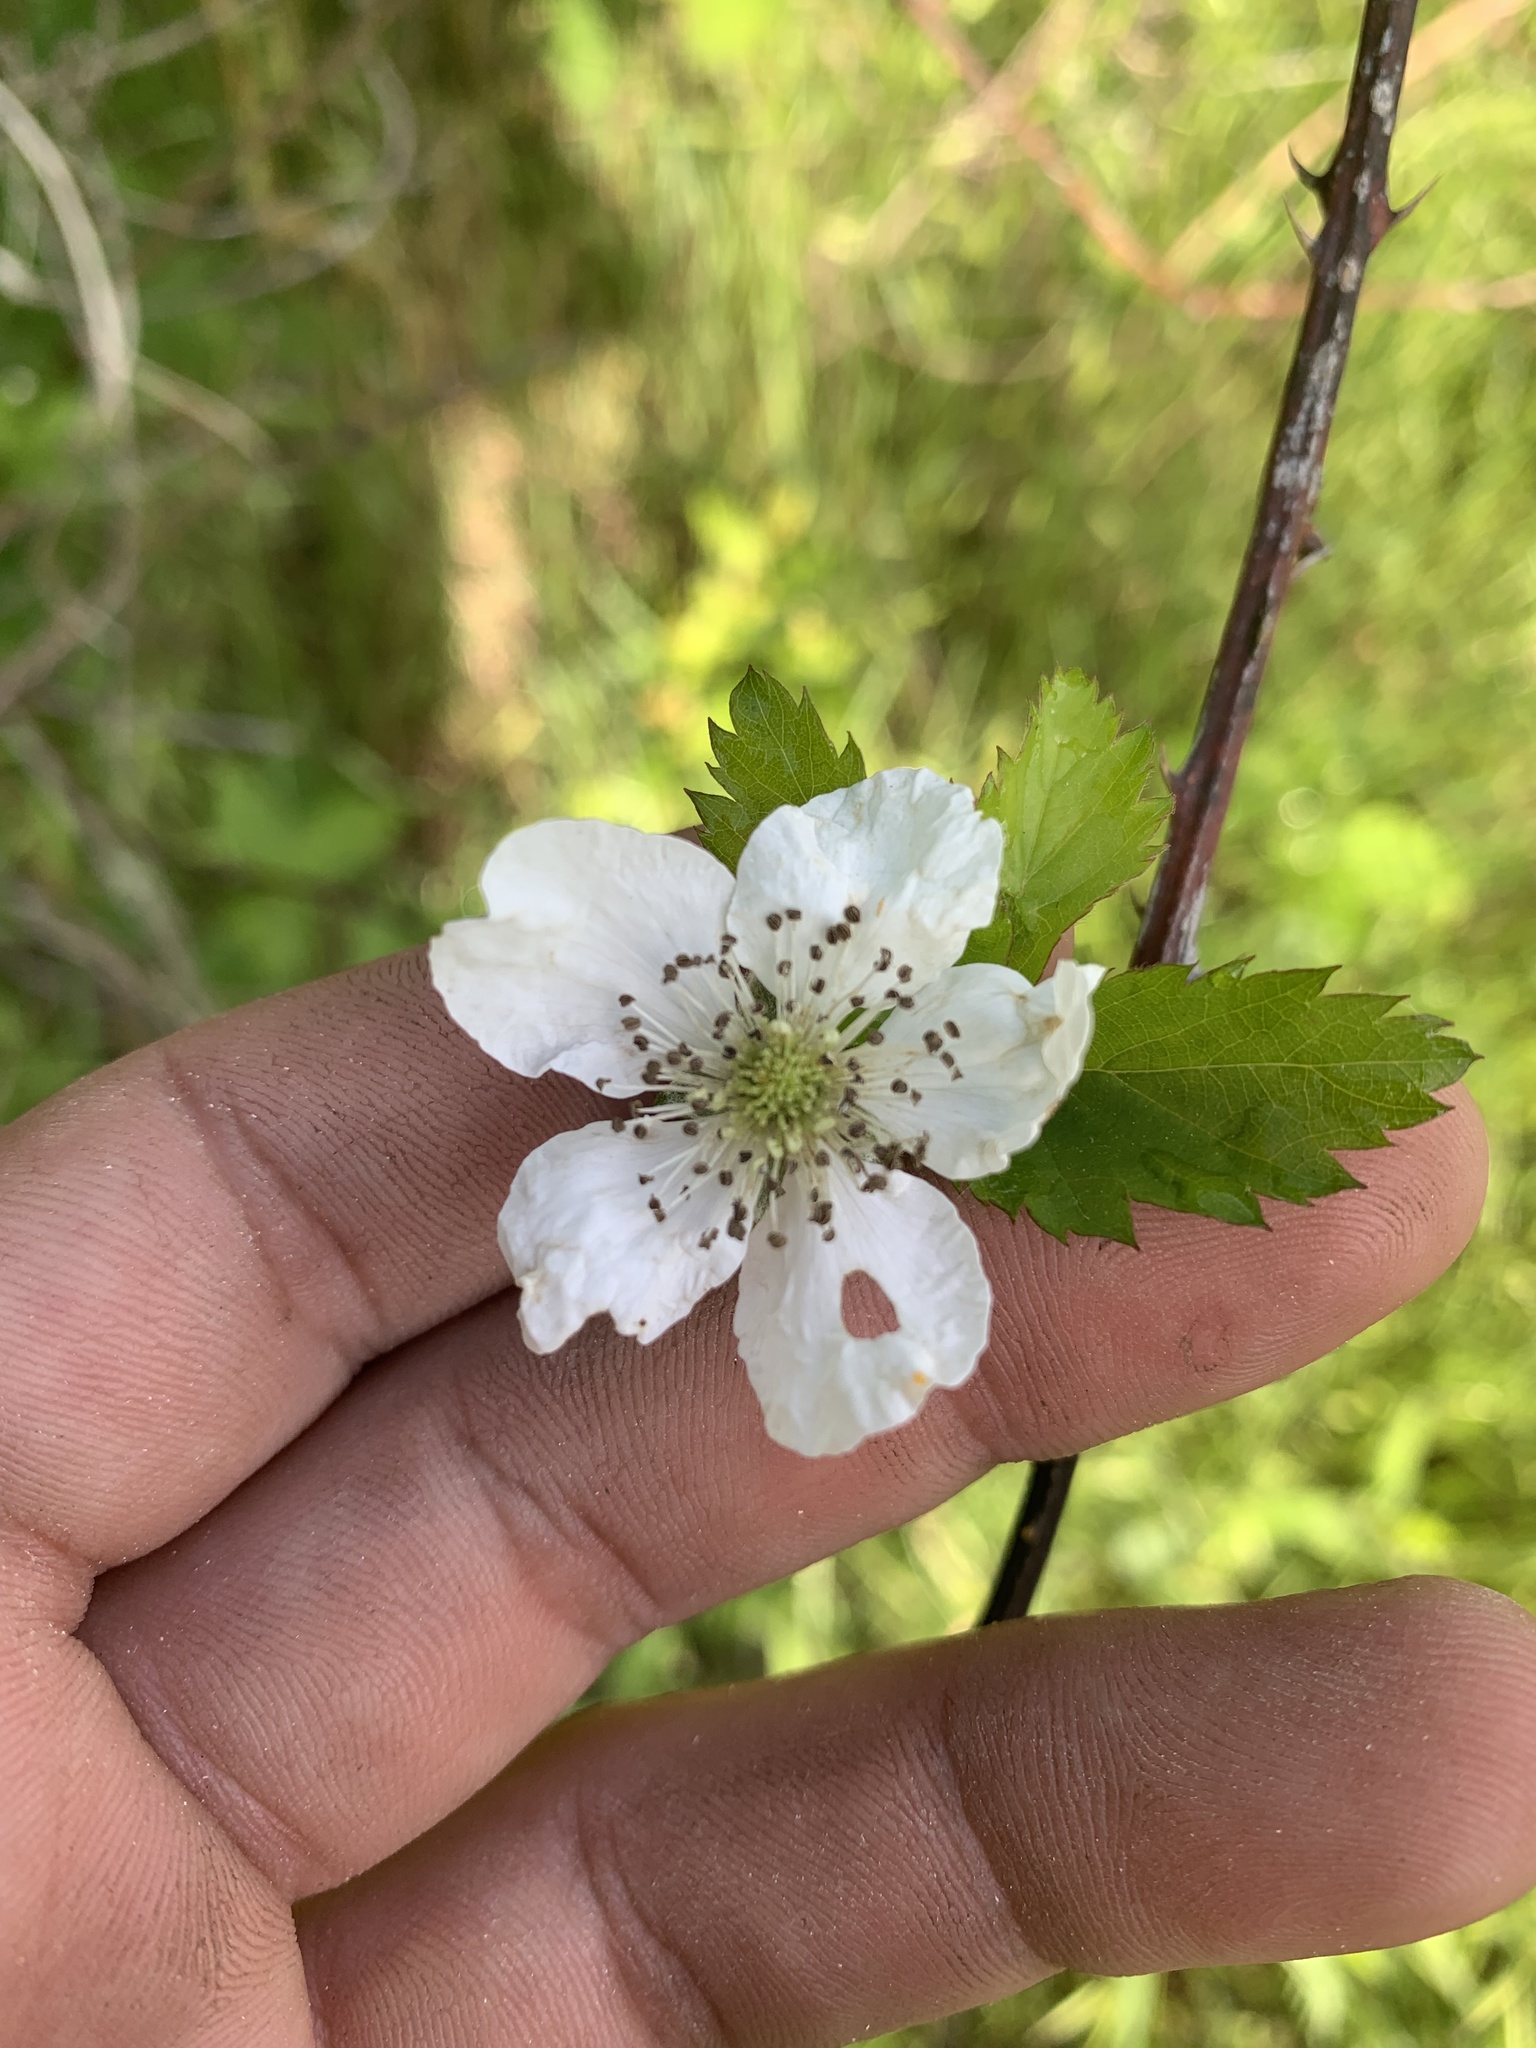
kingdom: Plantae
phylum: Tracheophyta
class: Magnoliopsida
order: Rosales
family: Rosaceae
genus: Rubus
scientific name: Rubus trivialis
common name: Southern dewberry
